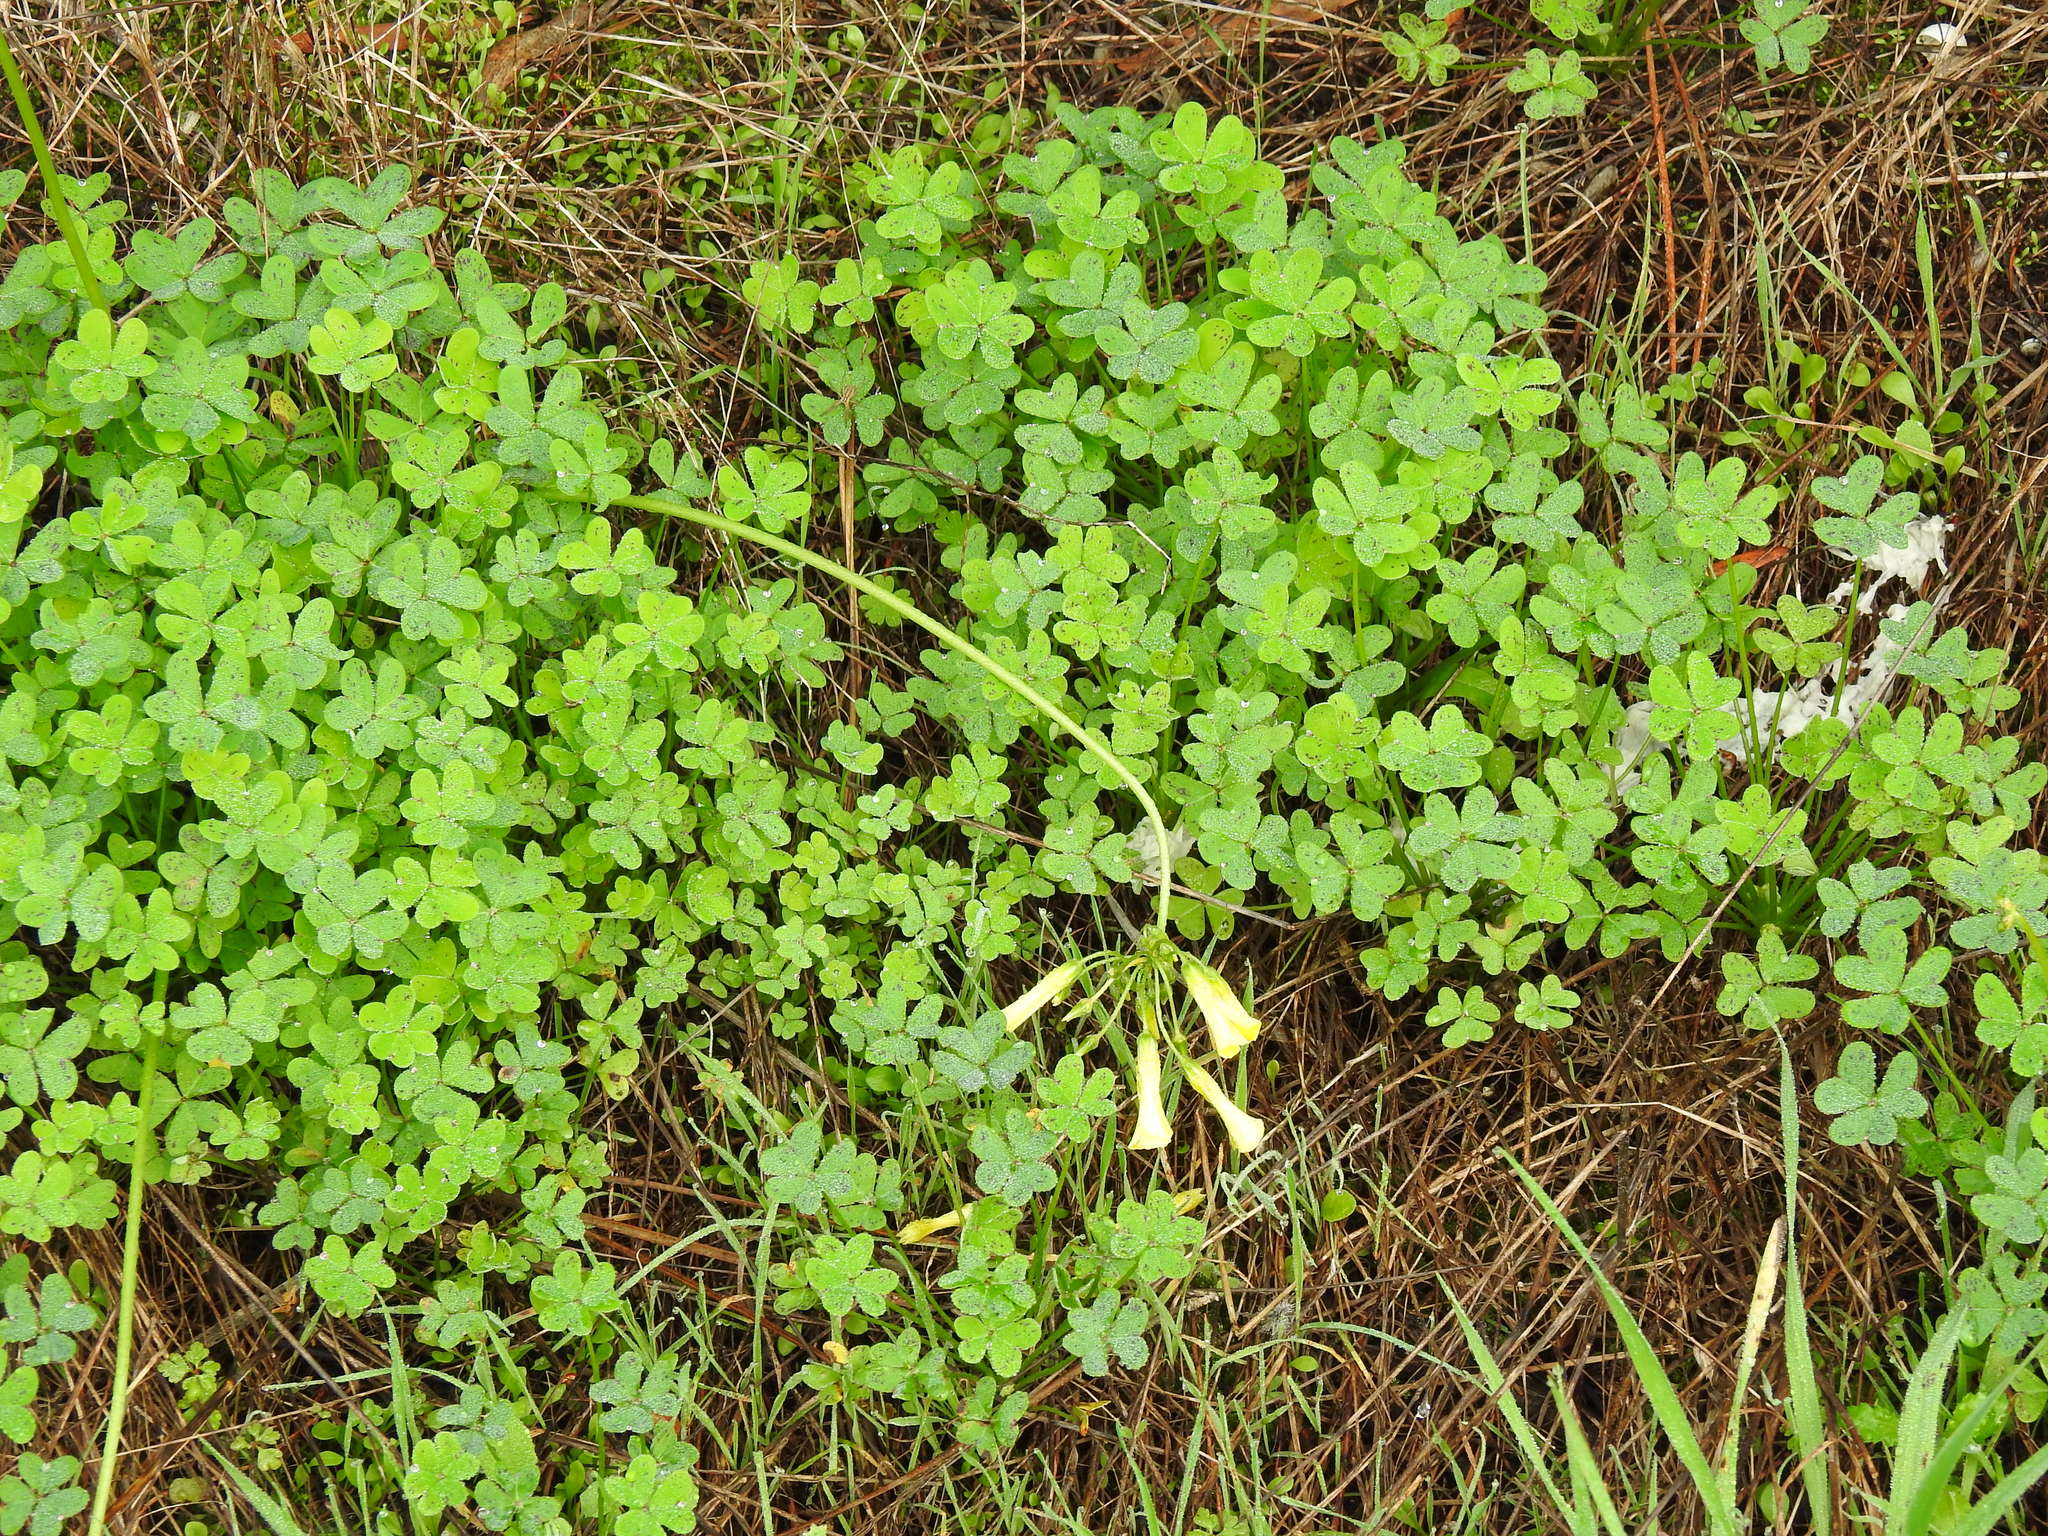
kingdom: Plantae
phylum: Tracheophyta
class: Magnoliopsida
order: Oxalidales
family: Oxalidaceae
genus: Oxalis
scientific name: Oxalis pes-caprae
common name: Bermuda-buttercup
